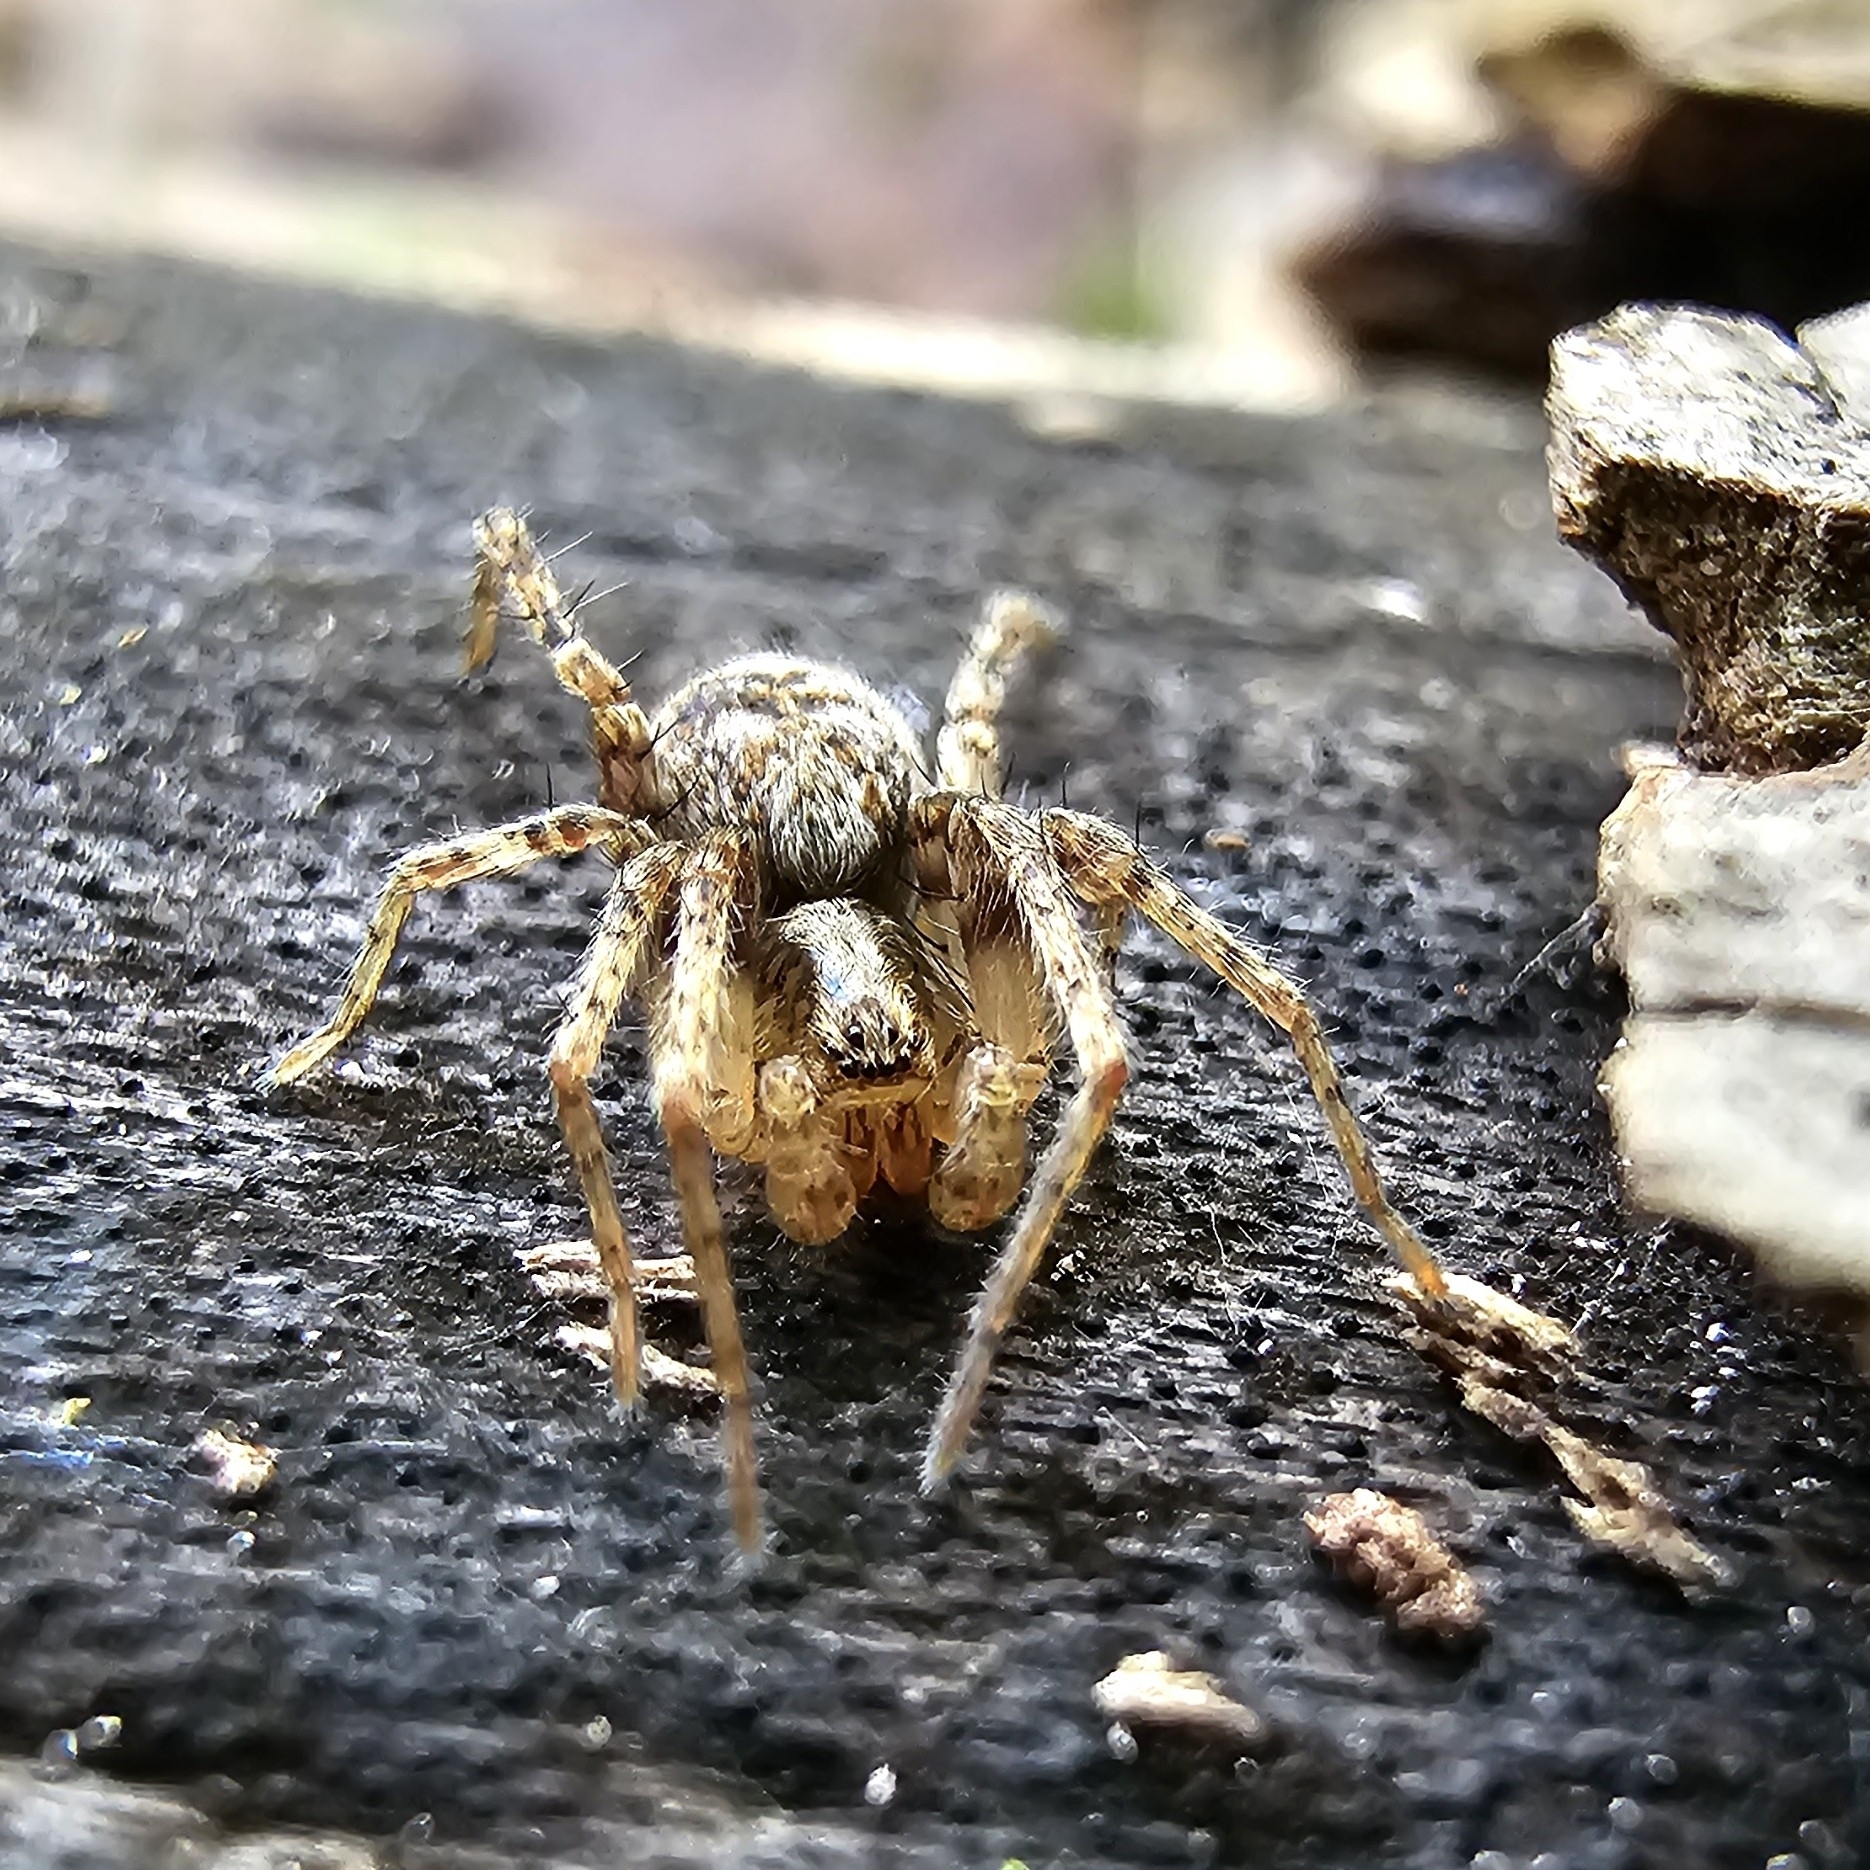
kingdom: Animalia
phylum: Arthropoda
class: Arachnida
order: Araneae
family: Anyphaenidae
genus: Anyphaena
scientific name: Anyphaena accentuata
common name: Buzzing spider
